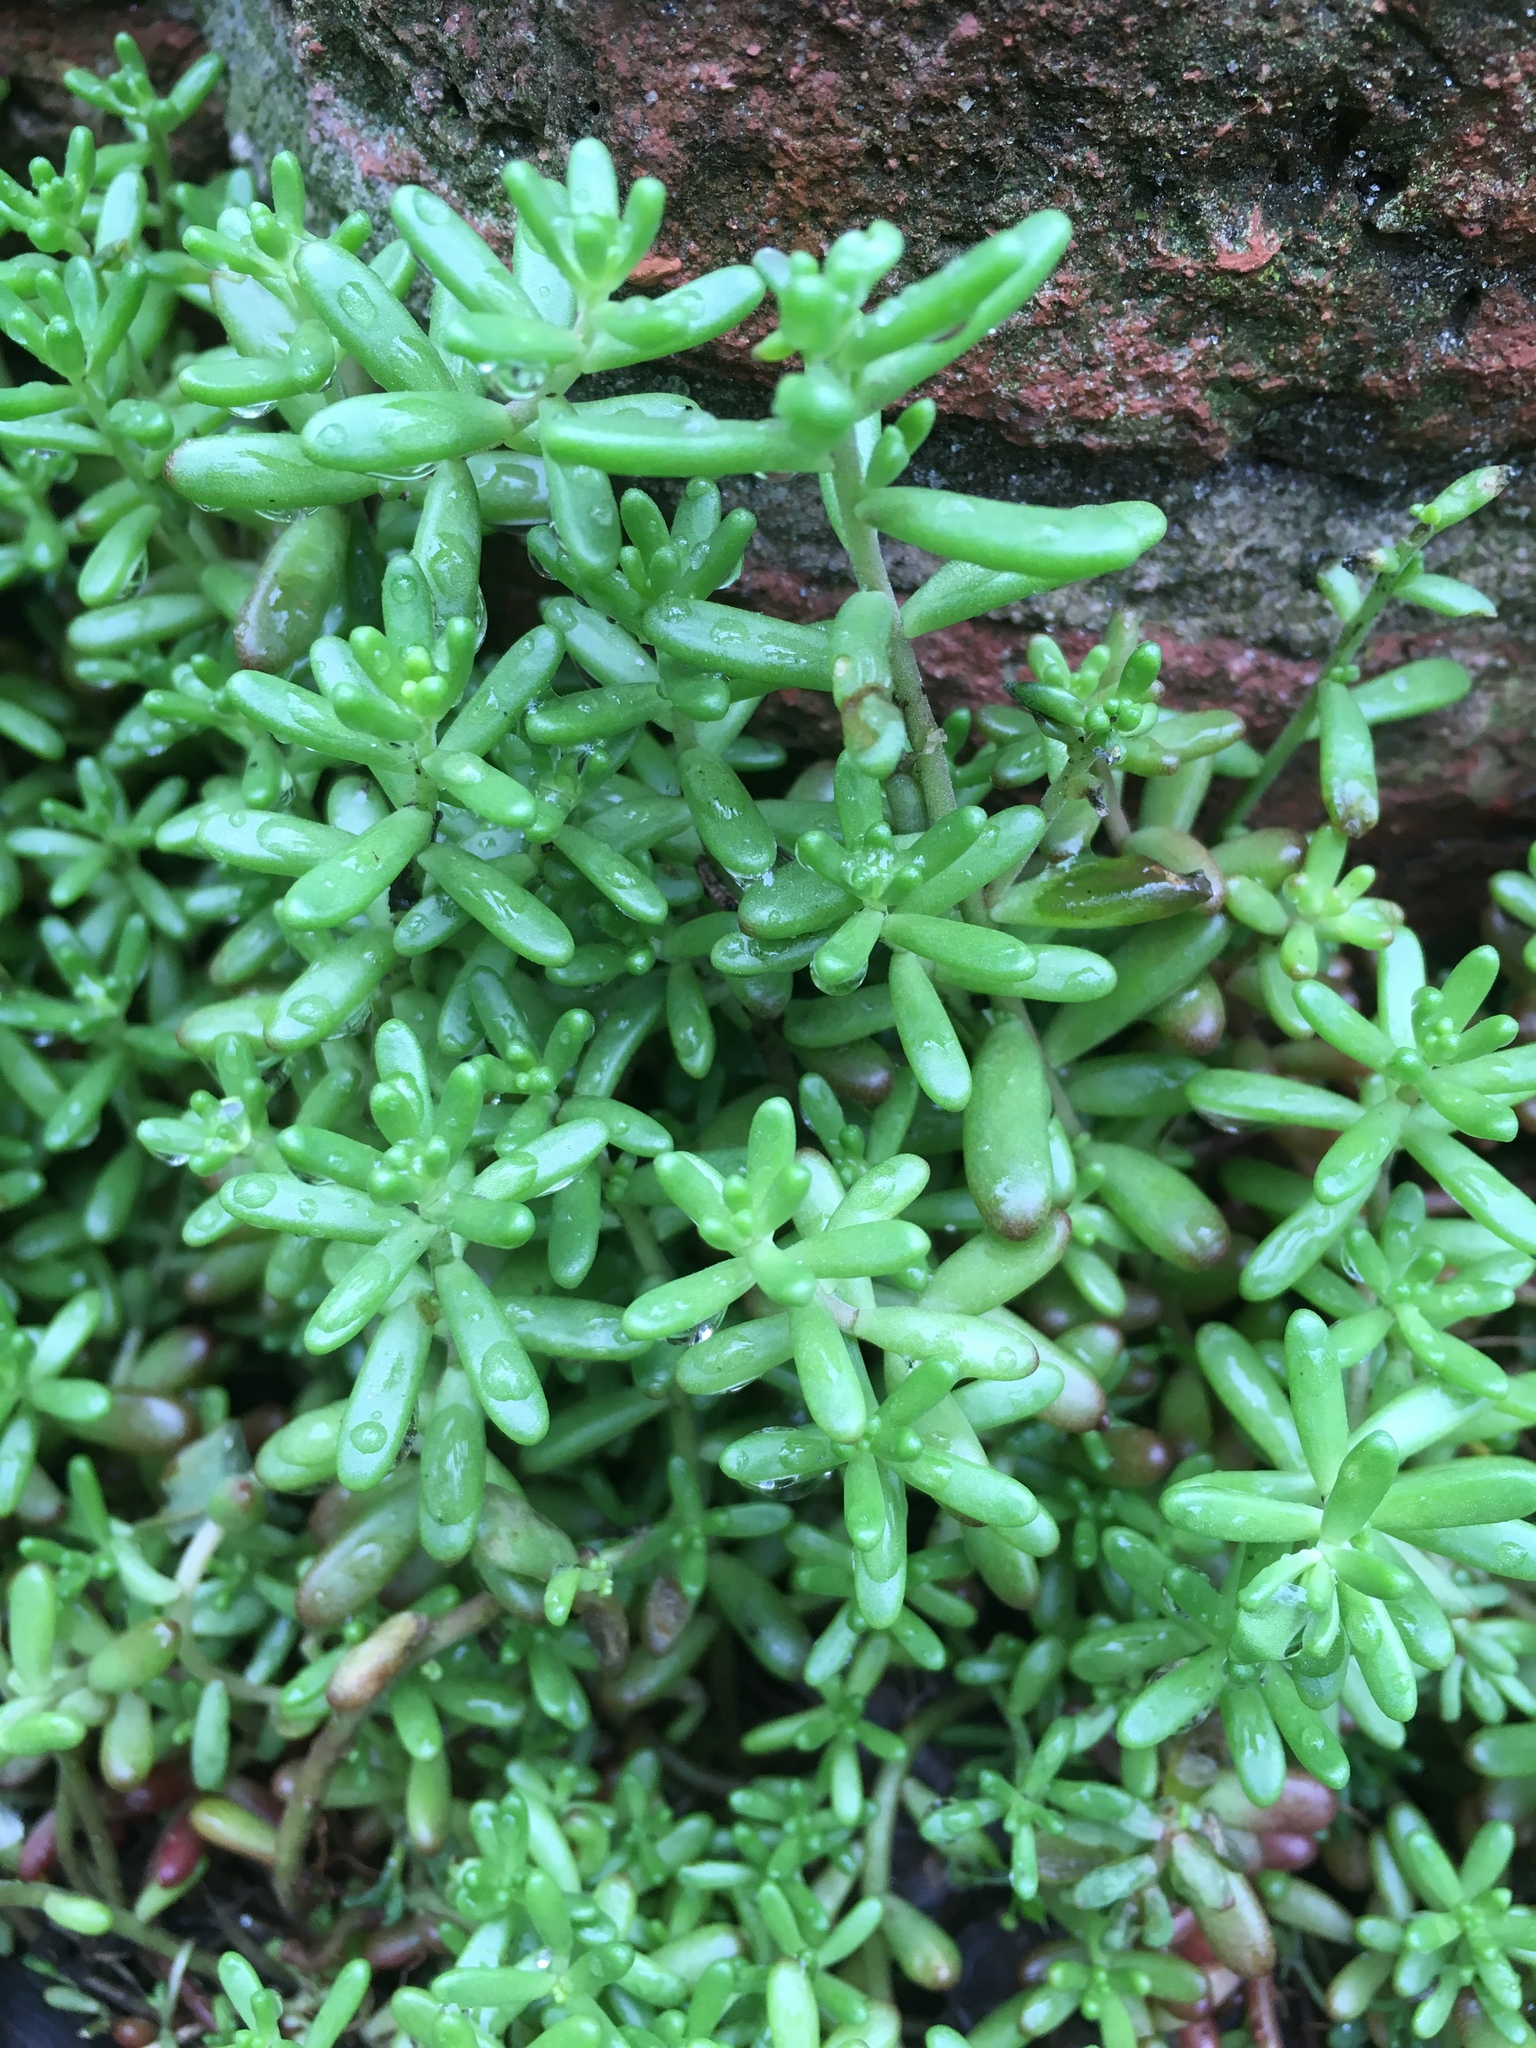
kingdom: Plantae
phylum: Tracheophyta
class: Magnoliopsida
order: Saxifragales
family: Crassulaceae
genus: Sedum
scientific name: Sedum album
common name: White stonecrop
